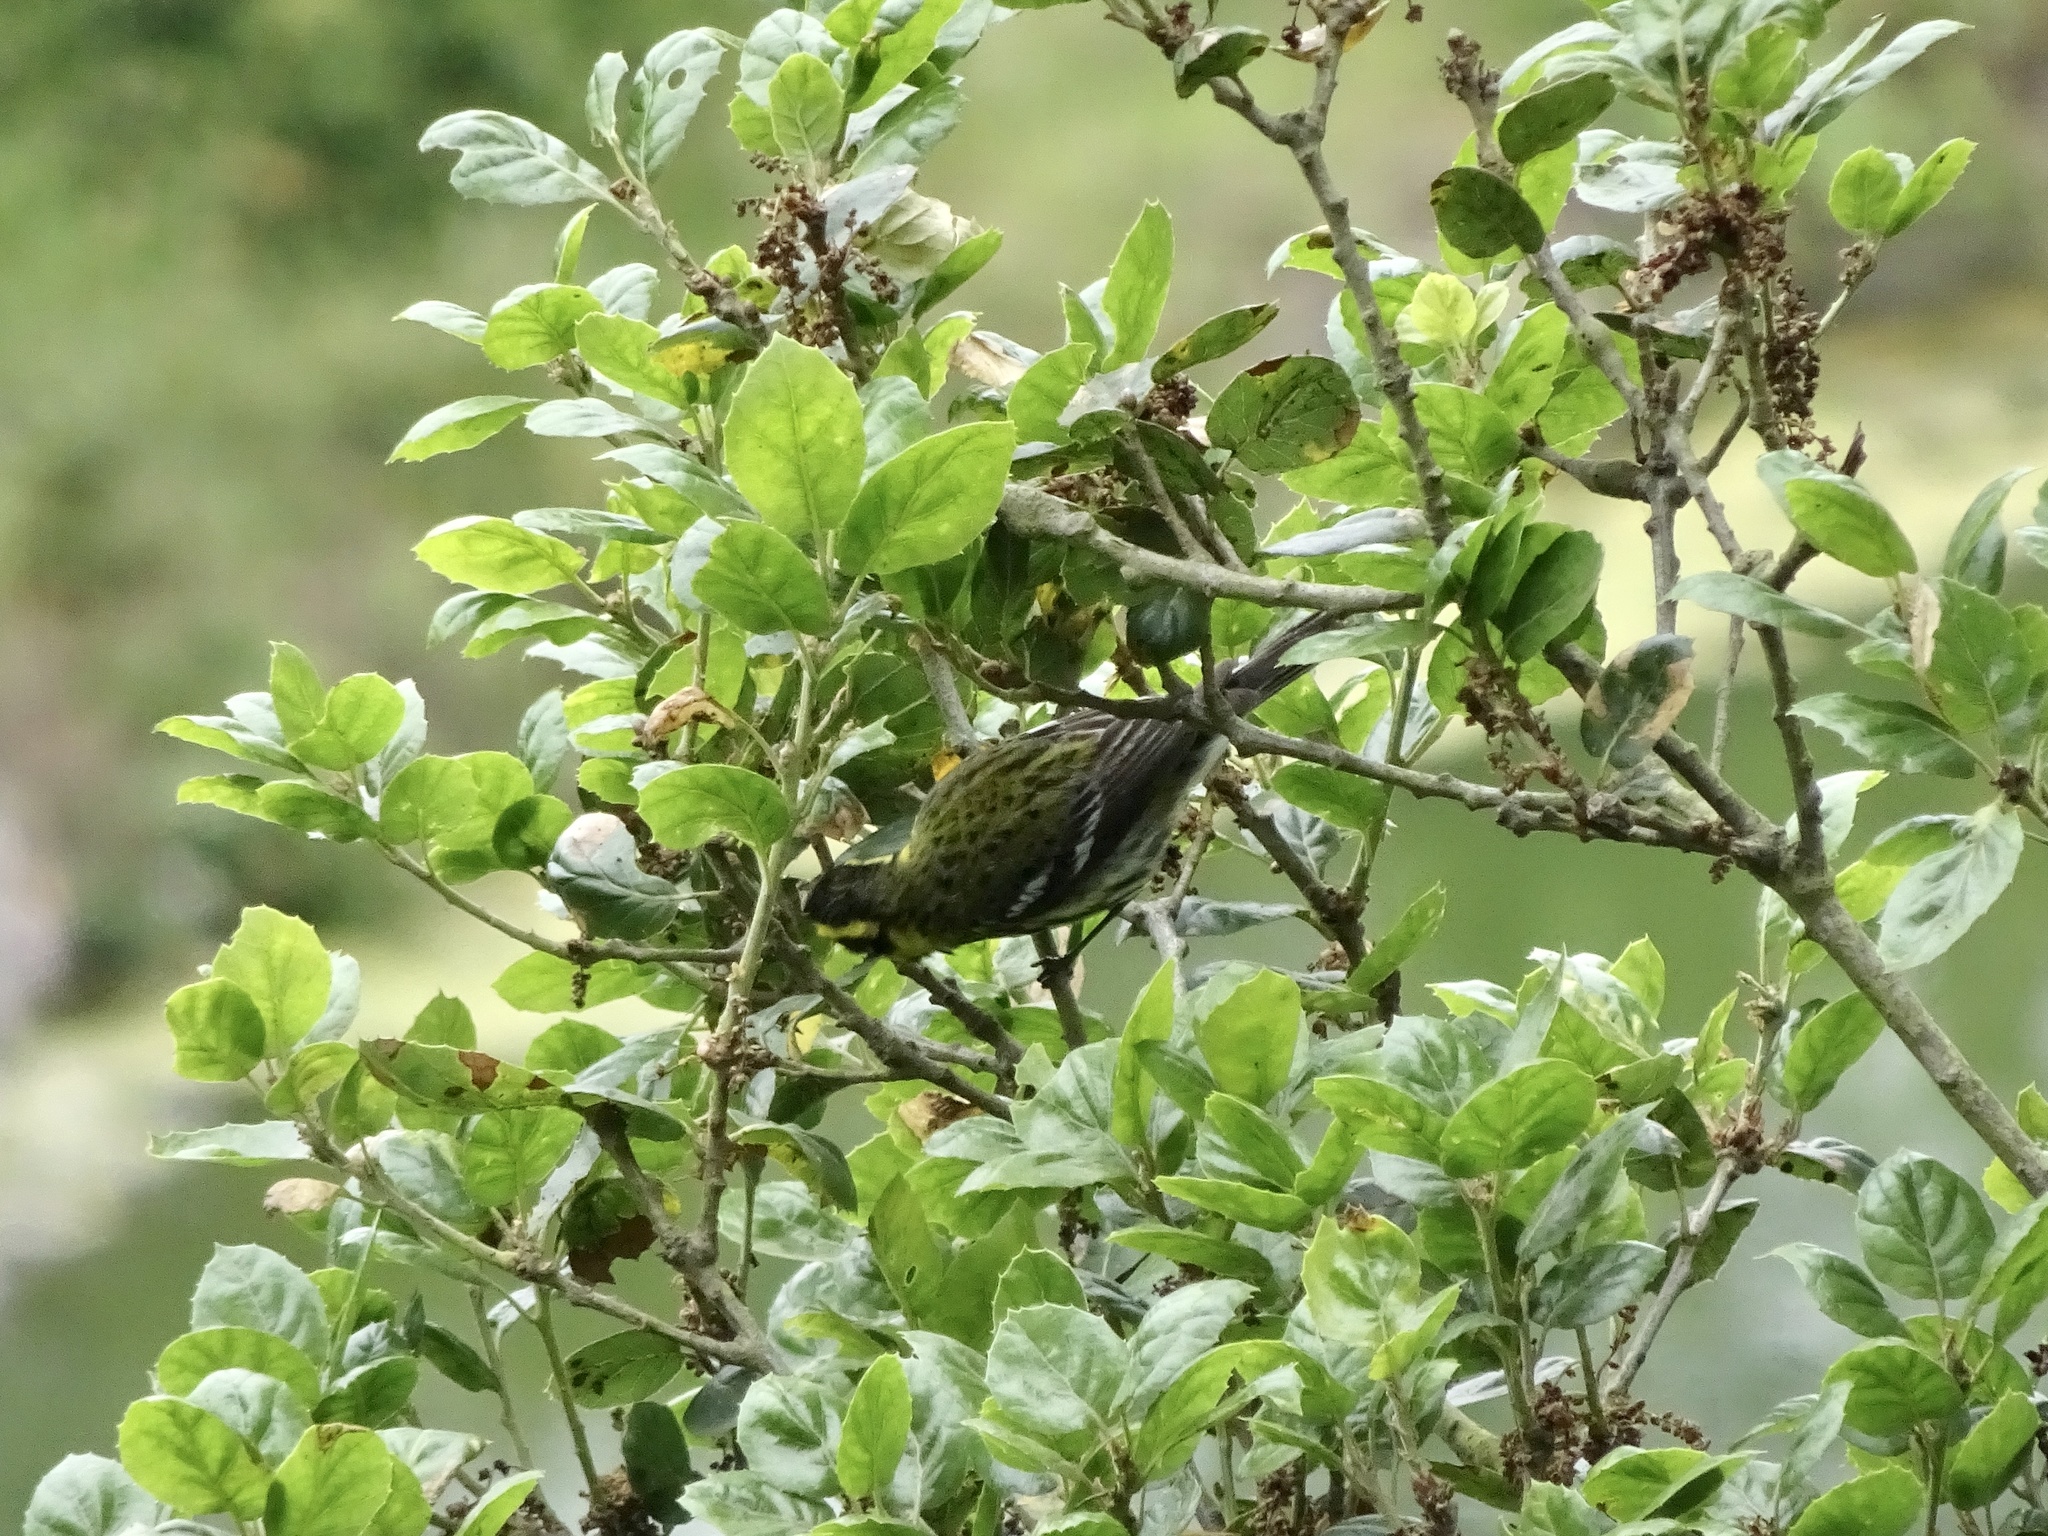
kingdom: Animalia
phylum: Chordata
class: Aves
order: Passeriformes
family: Parulidae
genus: Setophaga
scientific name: Setophaga townsendi
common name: Townsend's warbler
